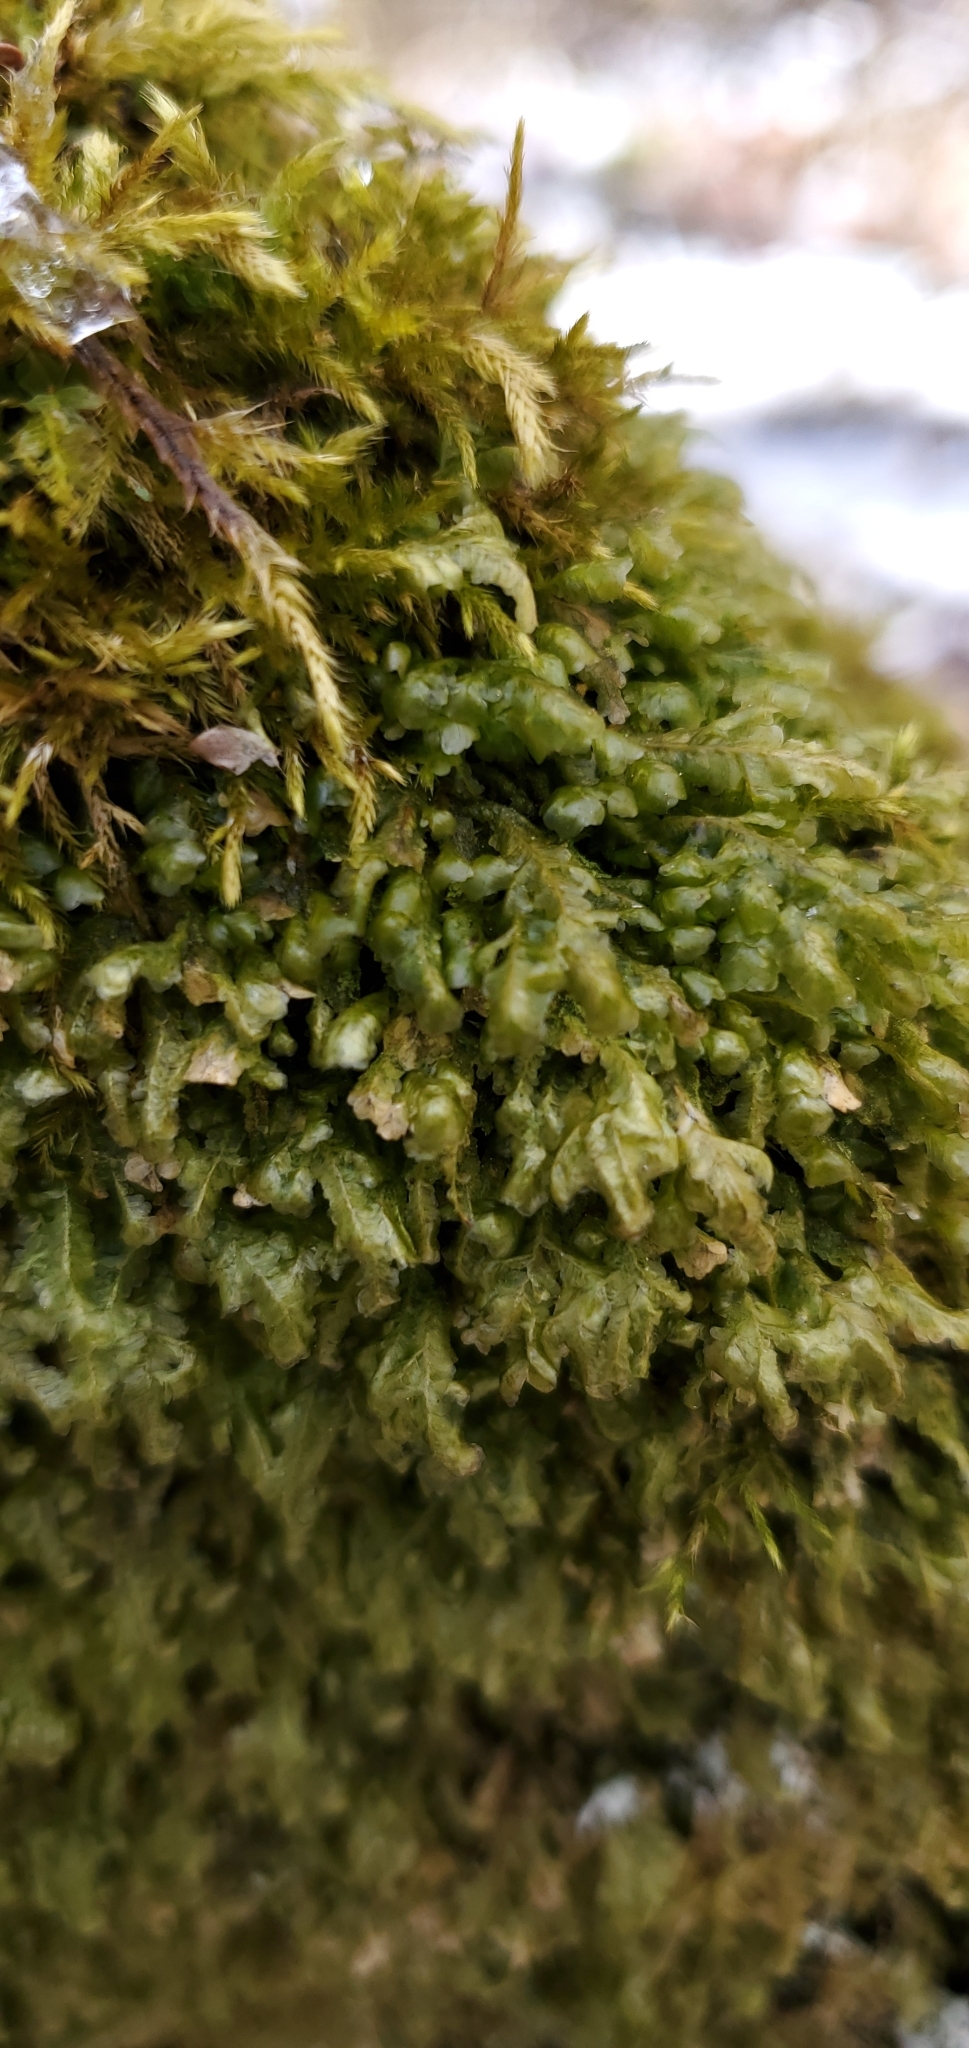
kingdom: Plantae
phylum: Bryophyta
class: Bryopsida
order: Hypnales
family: Neckeraceae
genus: Homalia
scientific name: Homalia trichomanoides
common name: Lime homalia moss
